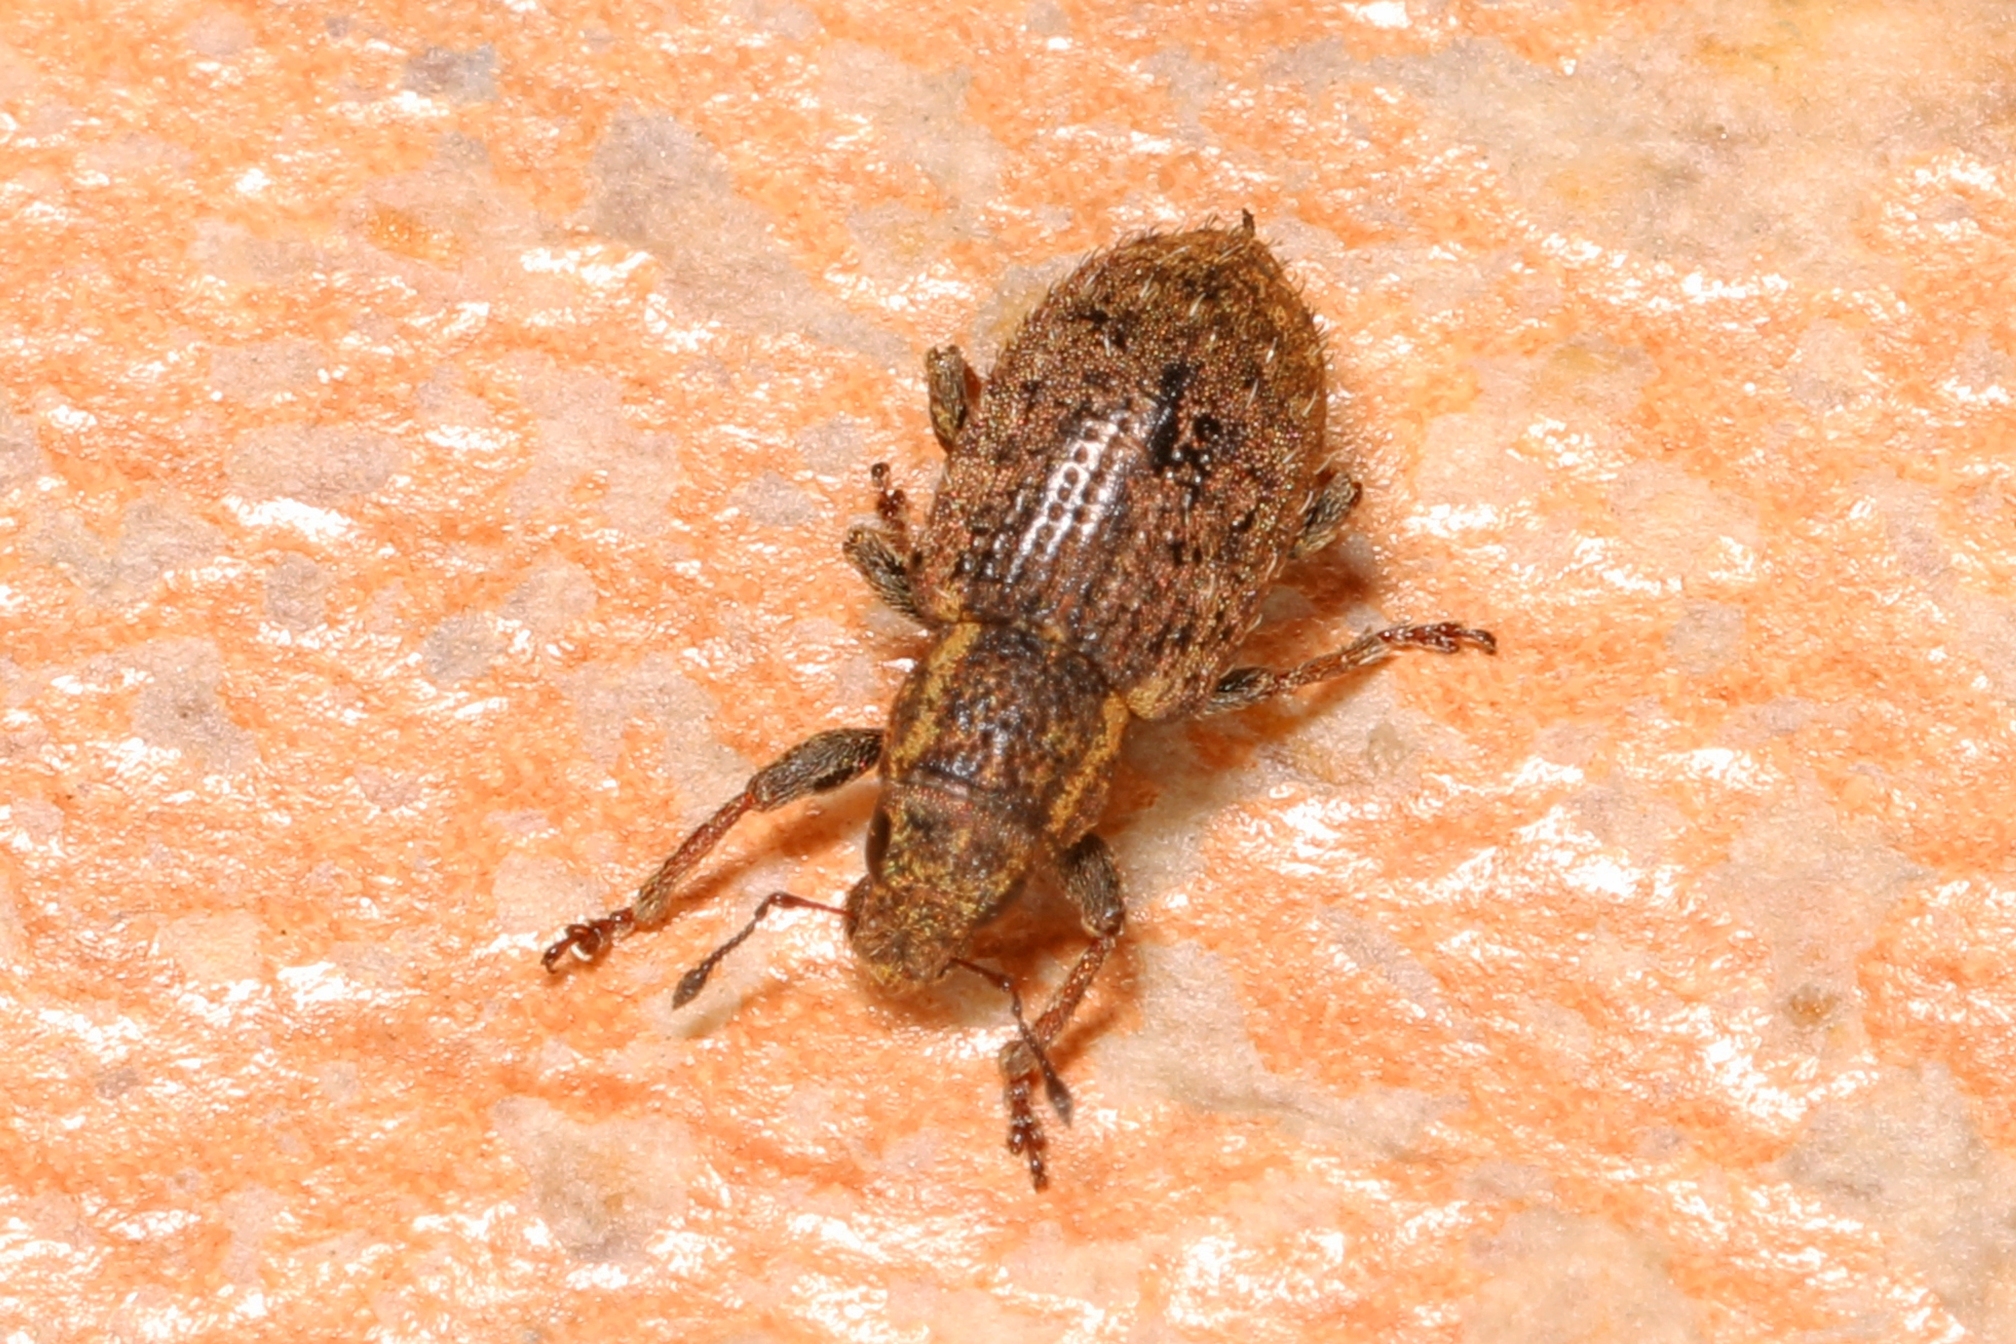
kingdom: Animalia
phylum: Arthropoda
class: Insecta
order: Coleoptera
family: Curculionidae
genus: Sitona
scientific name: Sitona hispidulus
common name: Clover weevil
